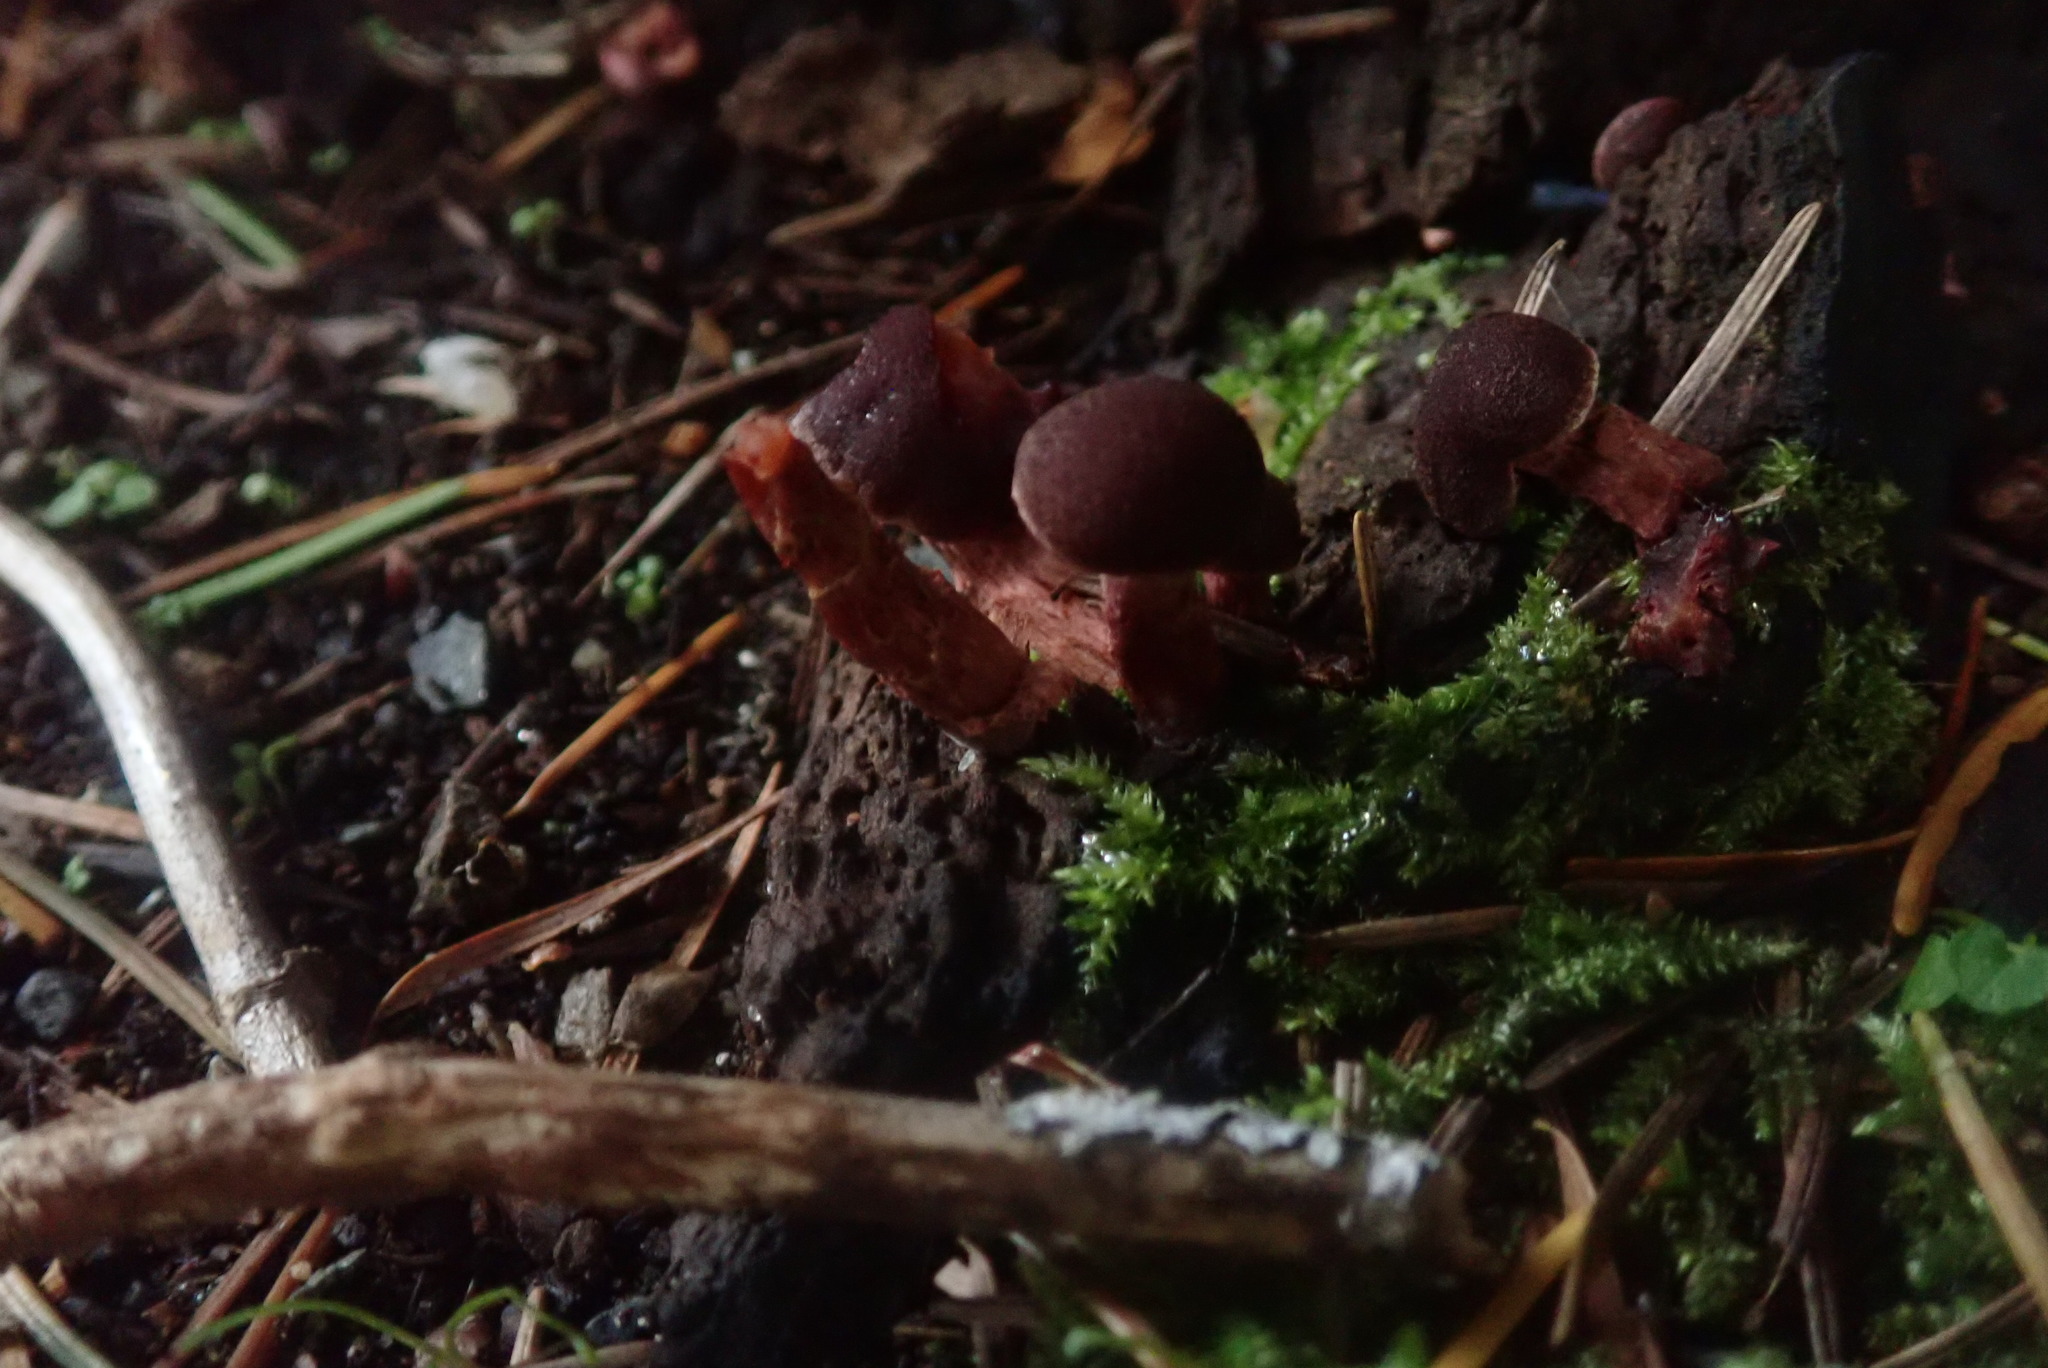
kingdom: Fungi
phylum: Basidiomycota
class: Agaricomycetes
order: Agaricales
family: Tubariaceae
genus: Tubaria
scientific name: Tubaria punicea
